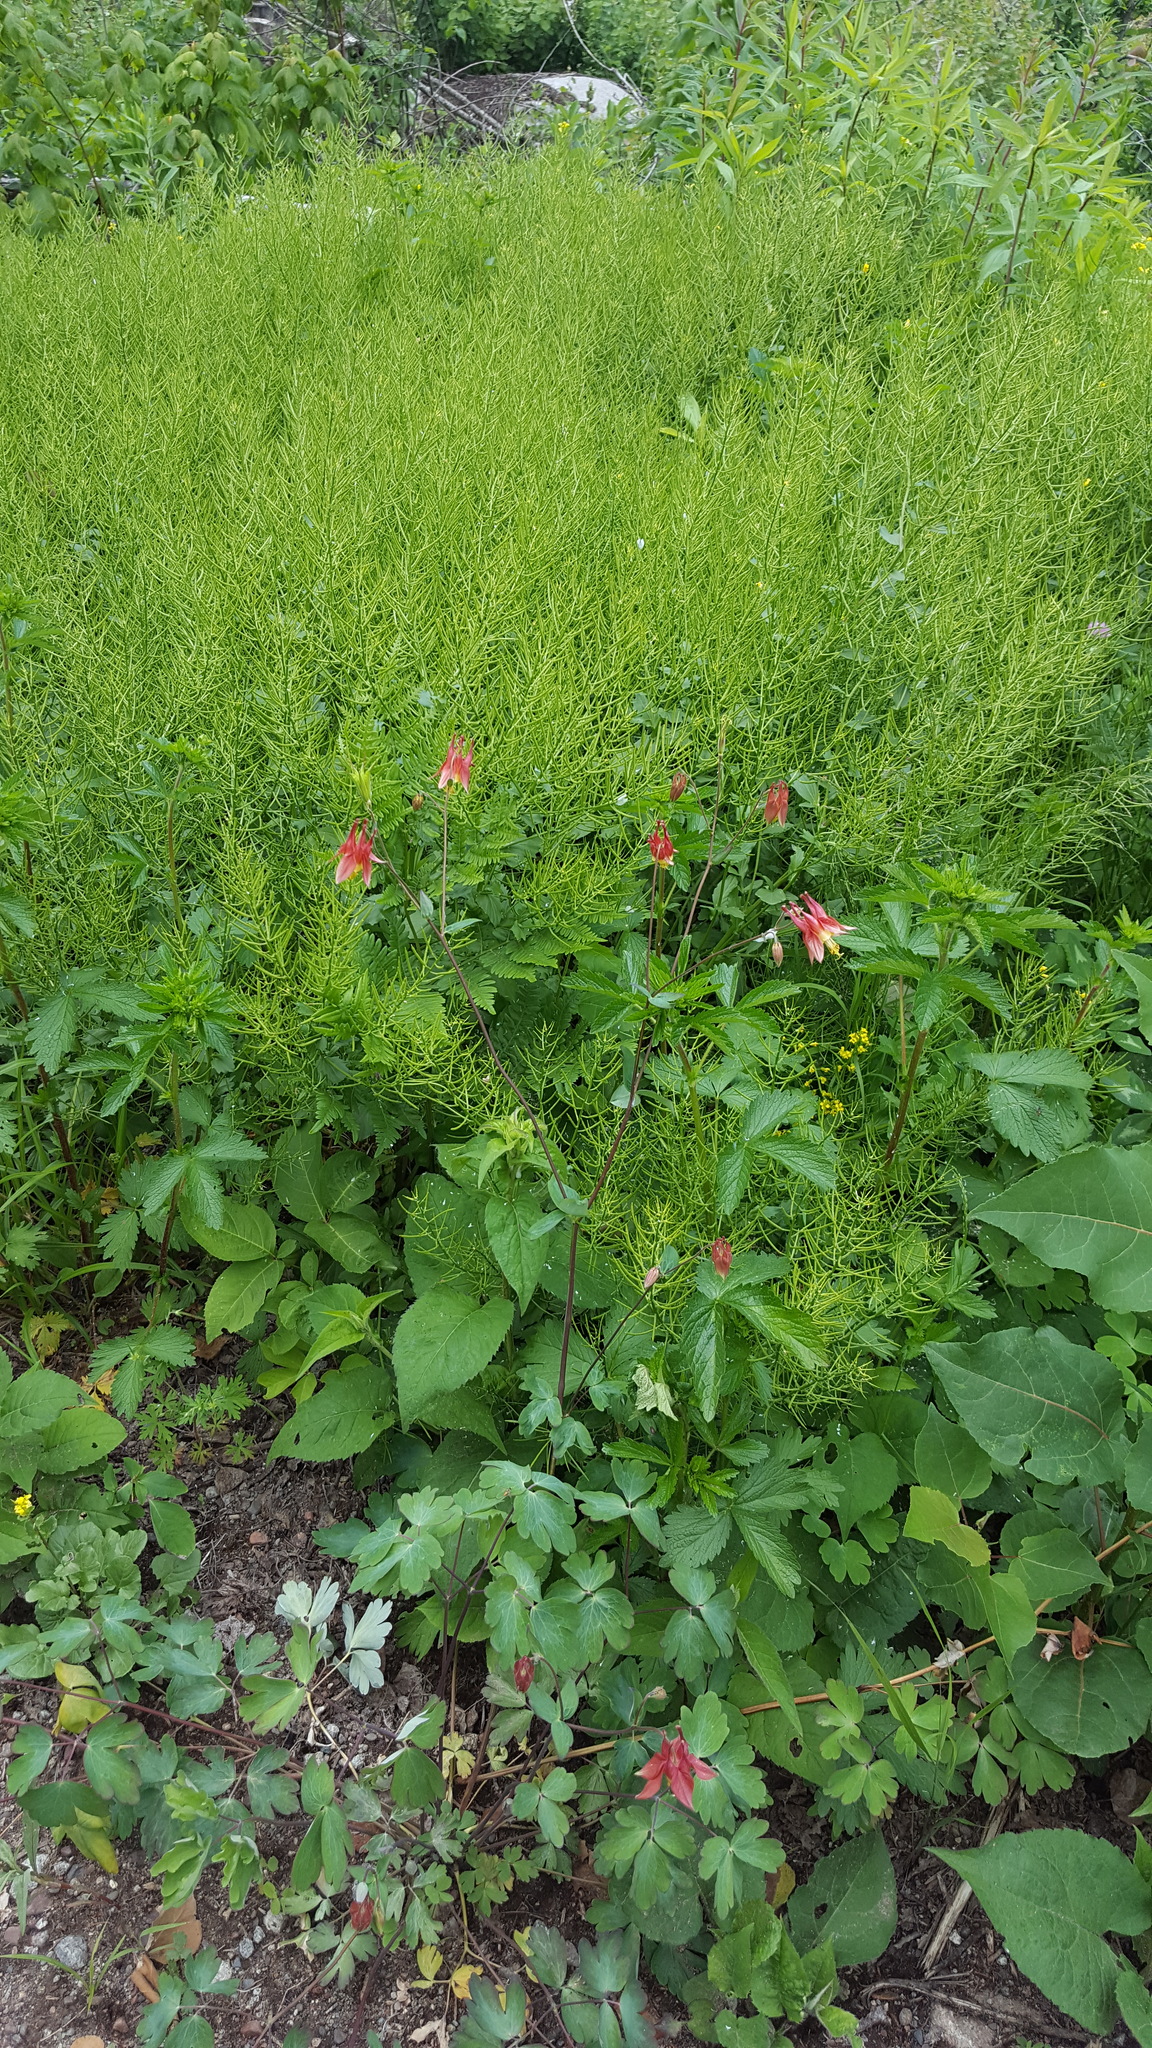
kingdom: Plantae
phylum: Tracheophyta
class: Magnoliopsida
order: Ranunculales
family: Ranunculaceae
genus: Aquilegia
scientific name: Aquilegia canadensis
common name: American columbine
